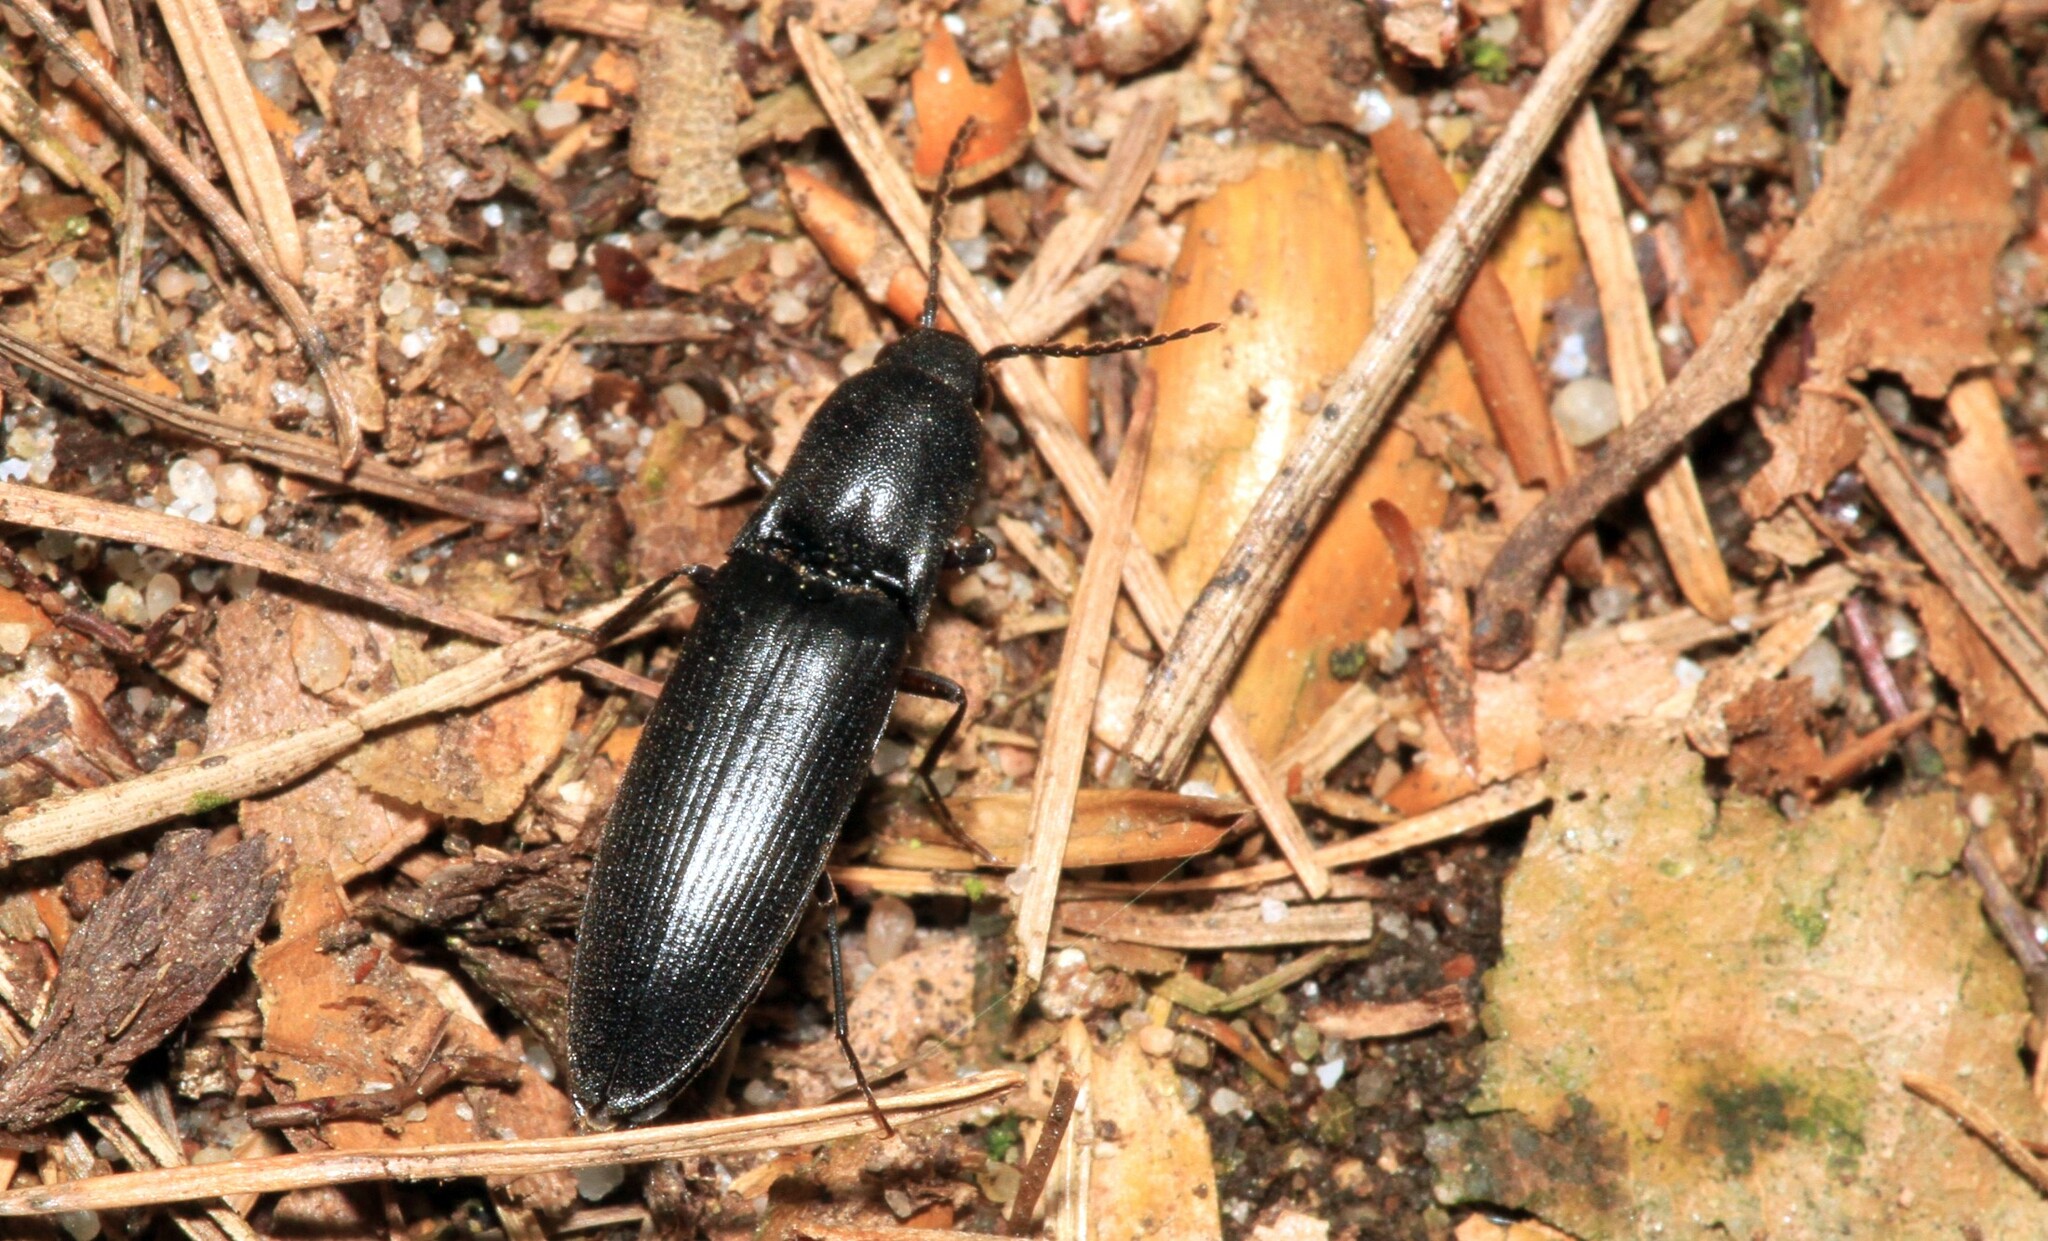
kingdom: Animalia
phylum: Arthropoda
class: Insecta
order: Coleoptera
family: Elateridae
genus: Ectinus
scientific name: Ectinus aterrimus
